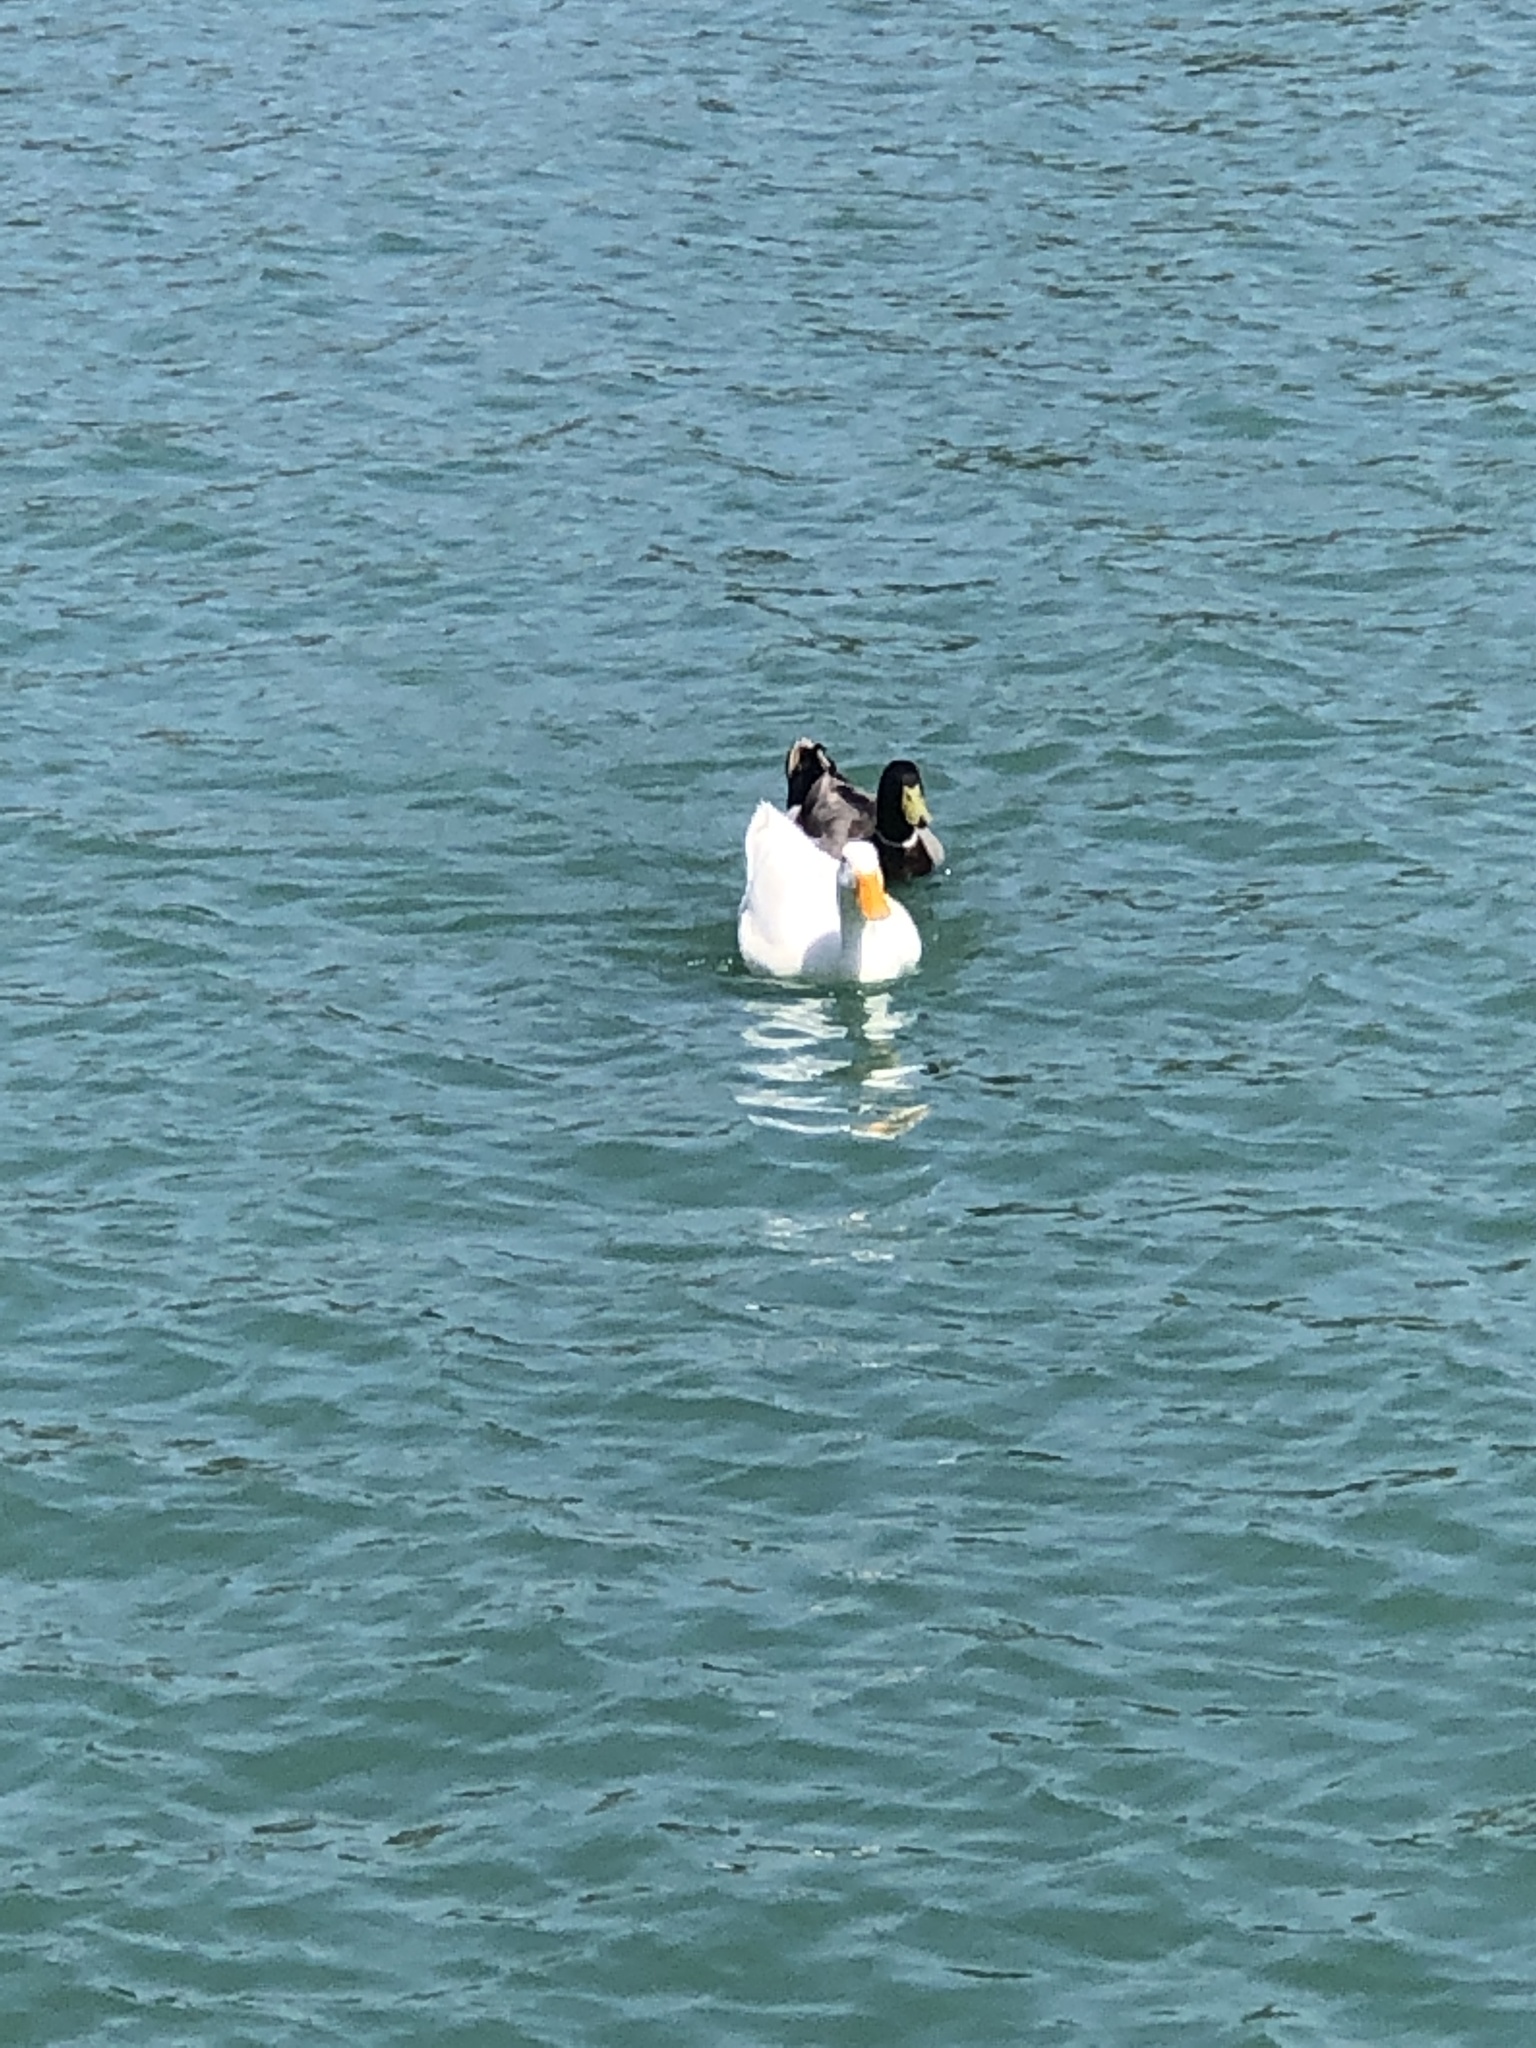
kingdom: Animalia
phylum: Chordata
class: Aves
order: Anseriformes
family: Anatidae
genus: Anas
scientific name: Anas platyrhynchos
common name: Mallard
